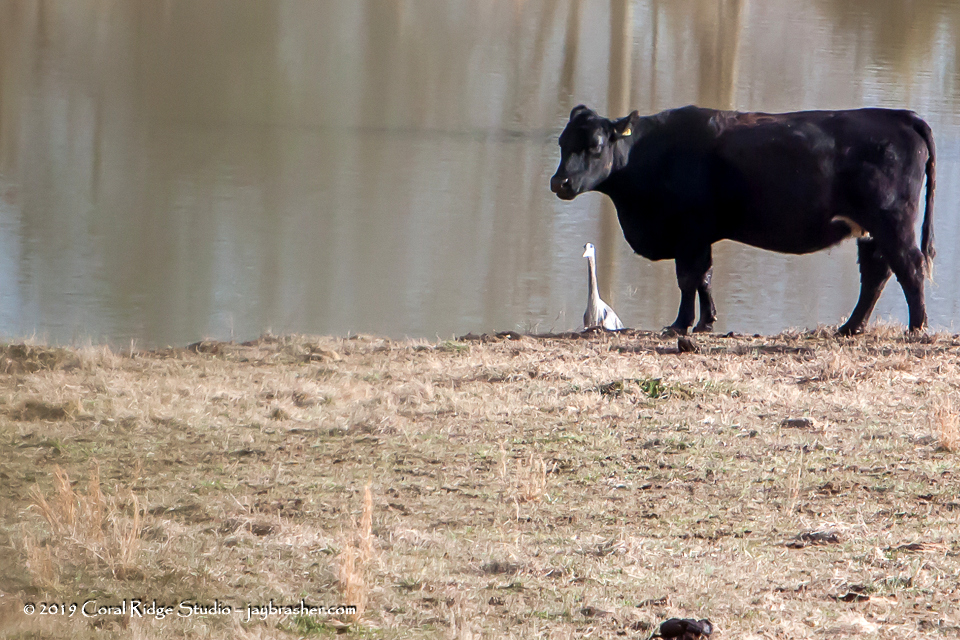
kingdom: Animalia
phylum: Chordata
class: Aves
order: Pelecaniformes
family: Ardeidae
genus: Ardea
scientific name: Ardea herodias
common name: Great blue heron
